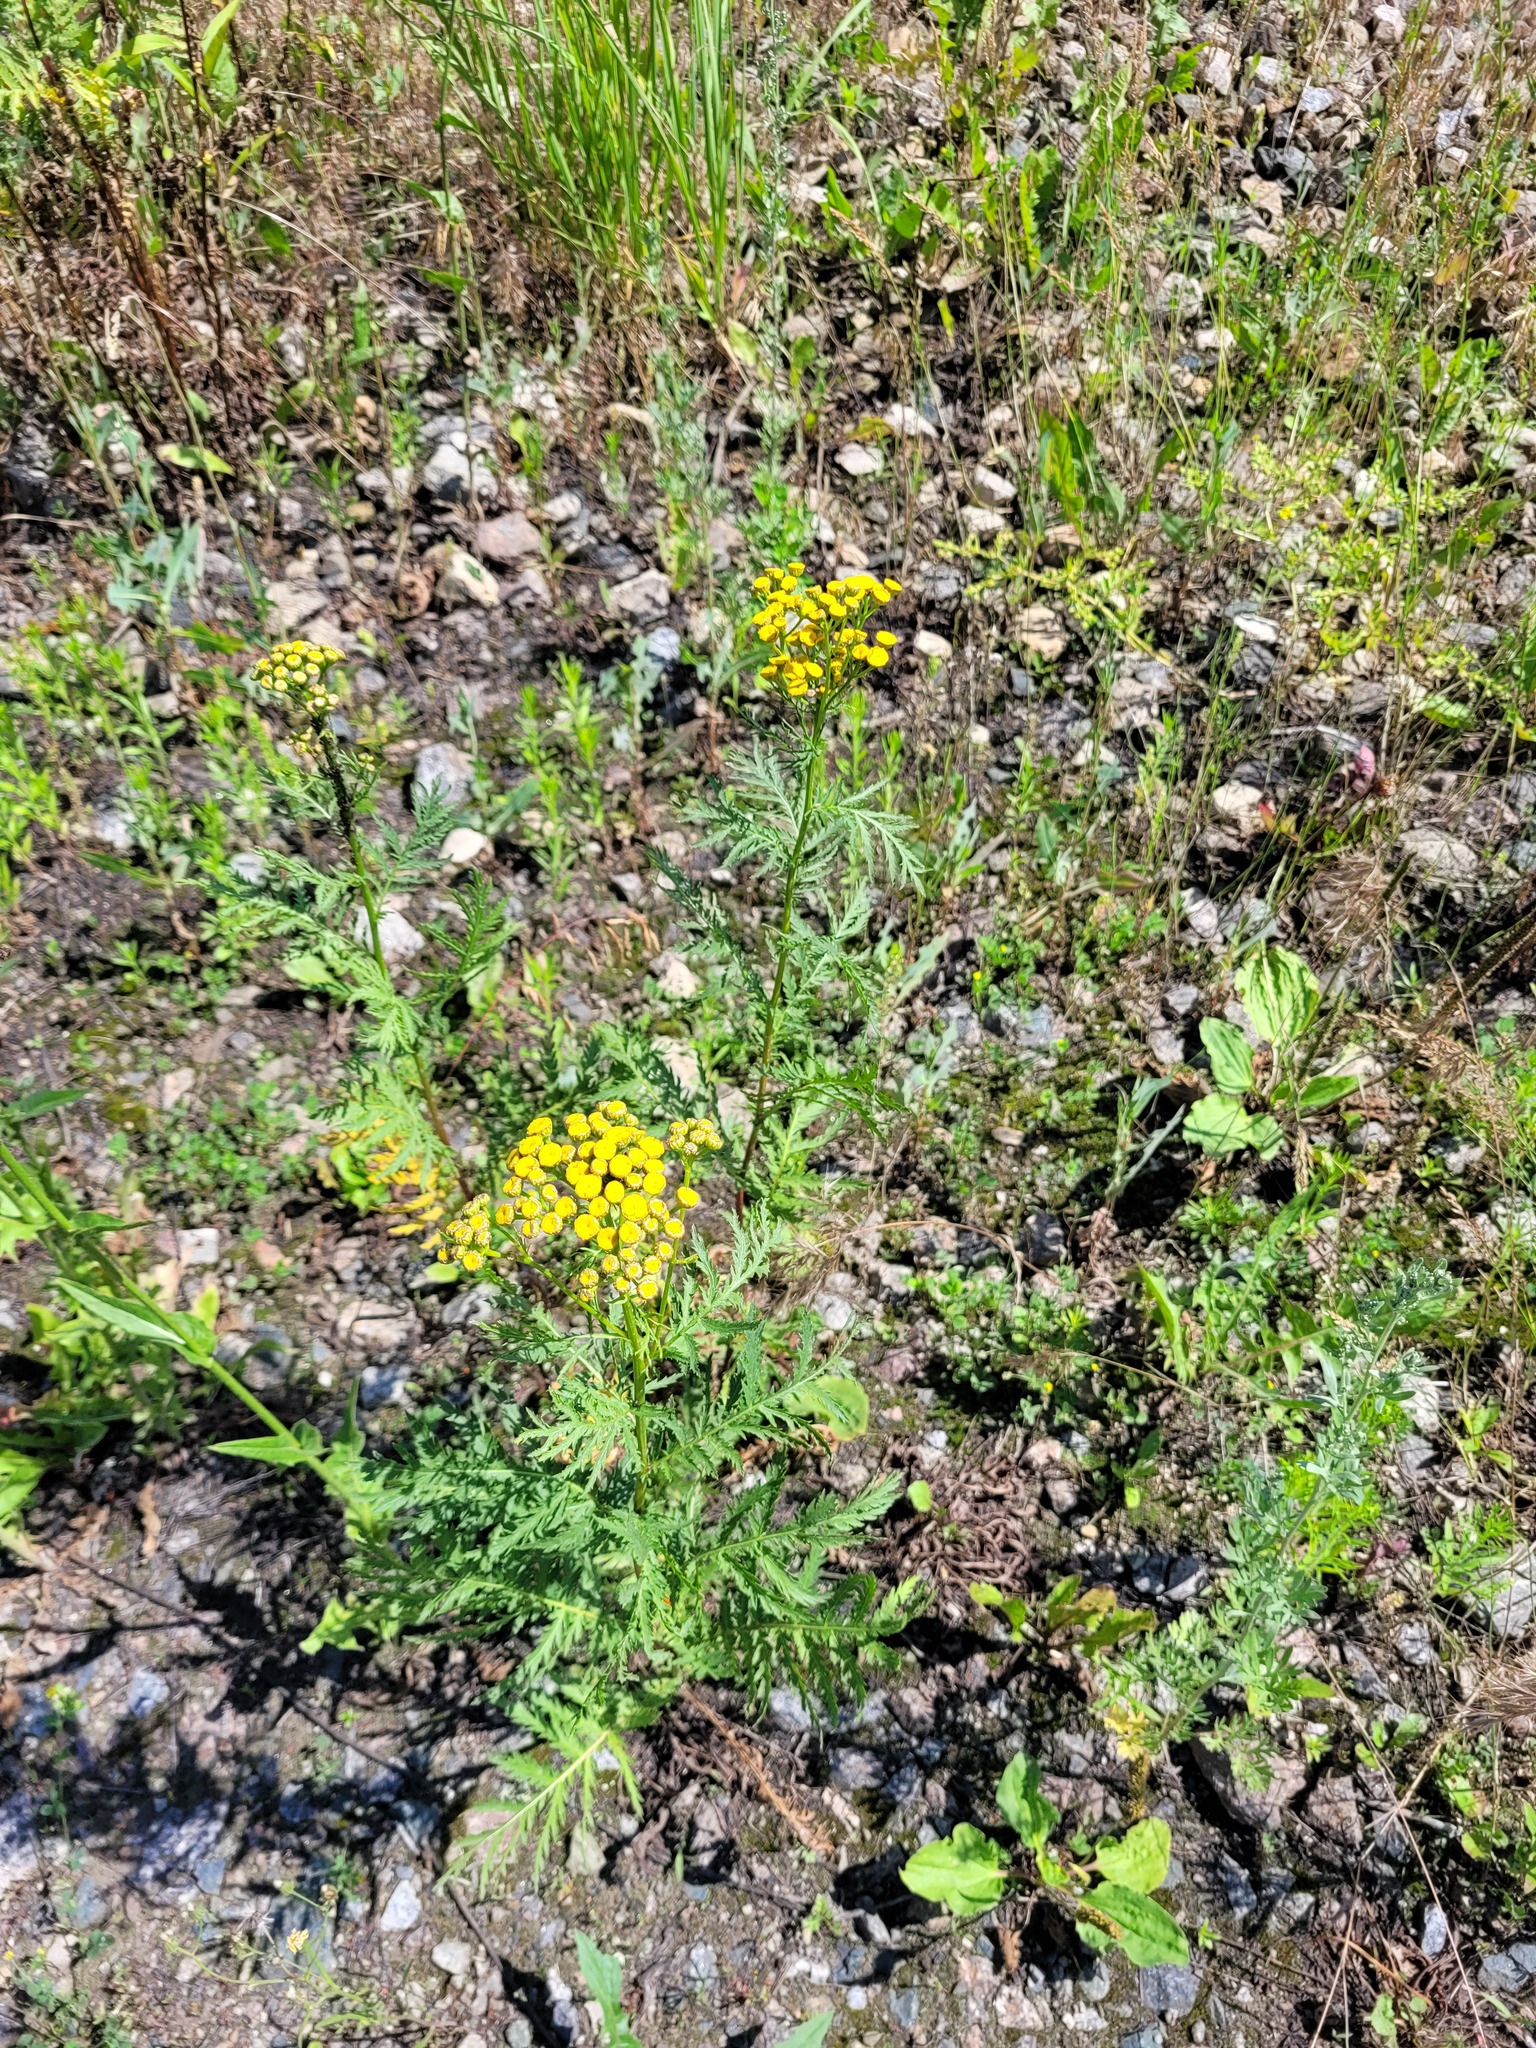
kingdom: Plantae
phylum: Tracheophyta
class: Magnoliopsida
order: Asterales
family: Asteraceae
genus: Tanacetum
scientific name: Tanacetum vulgare
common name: Common tansy
